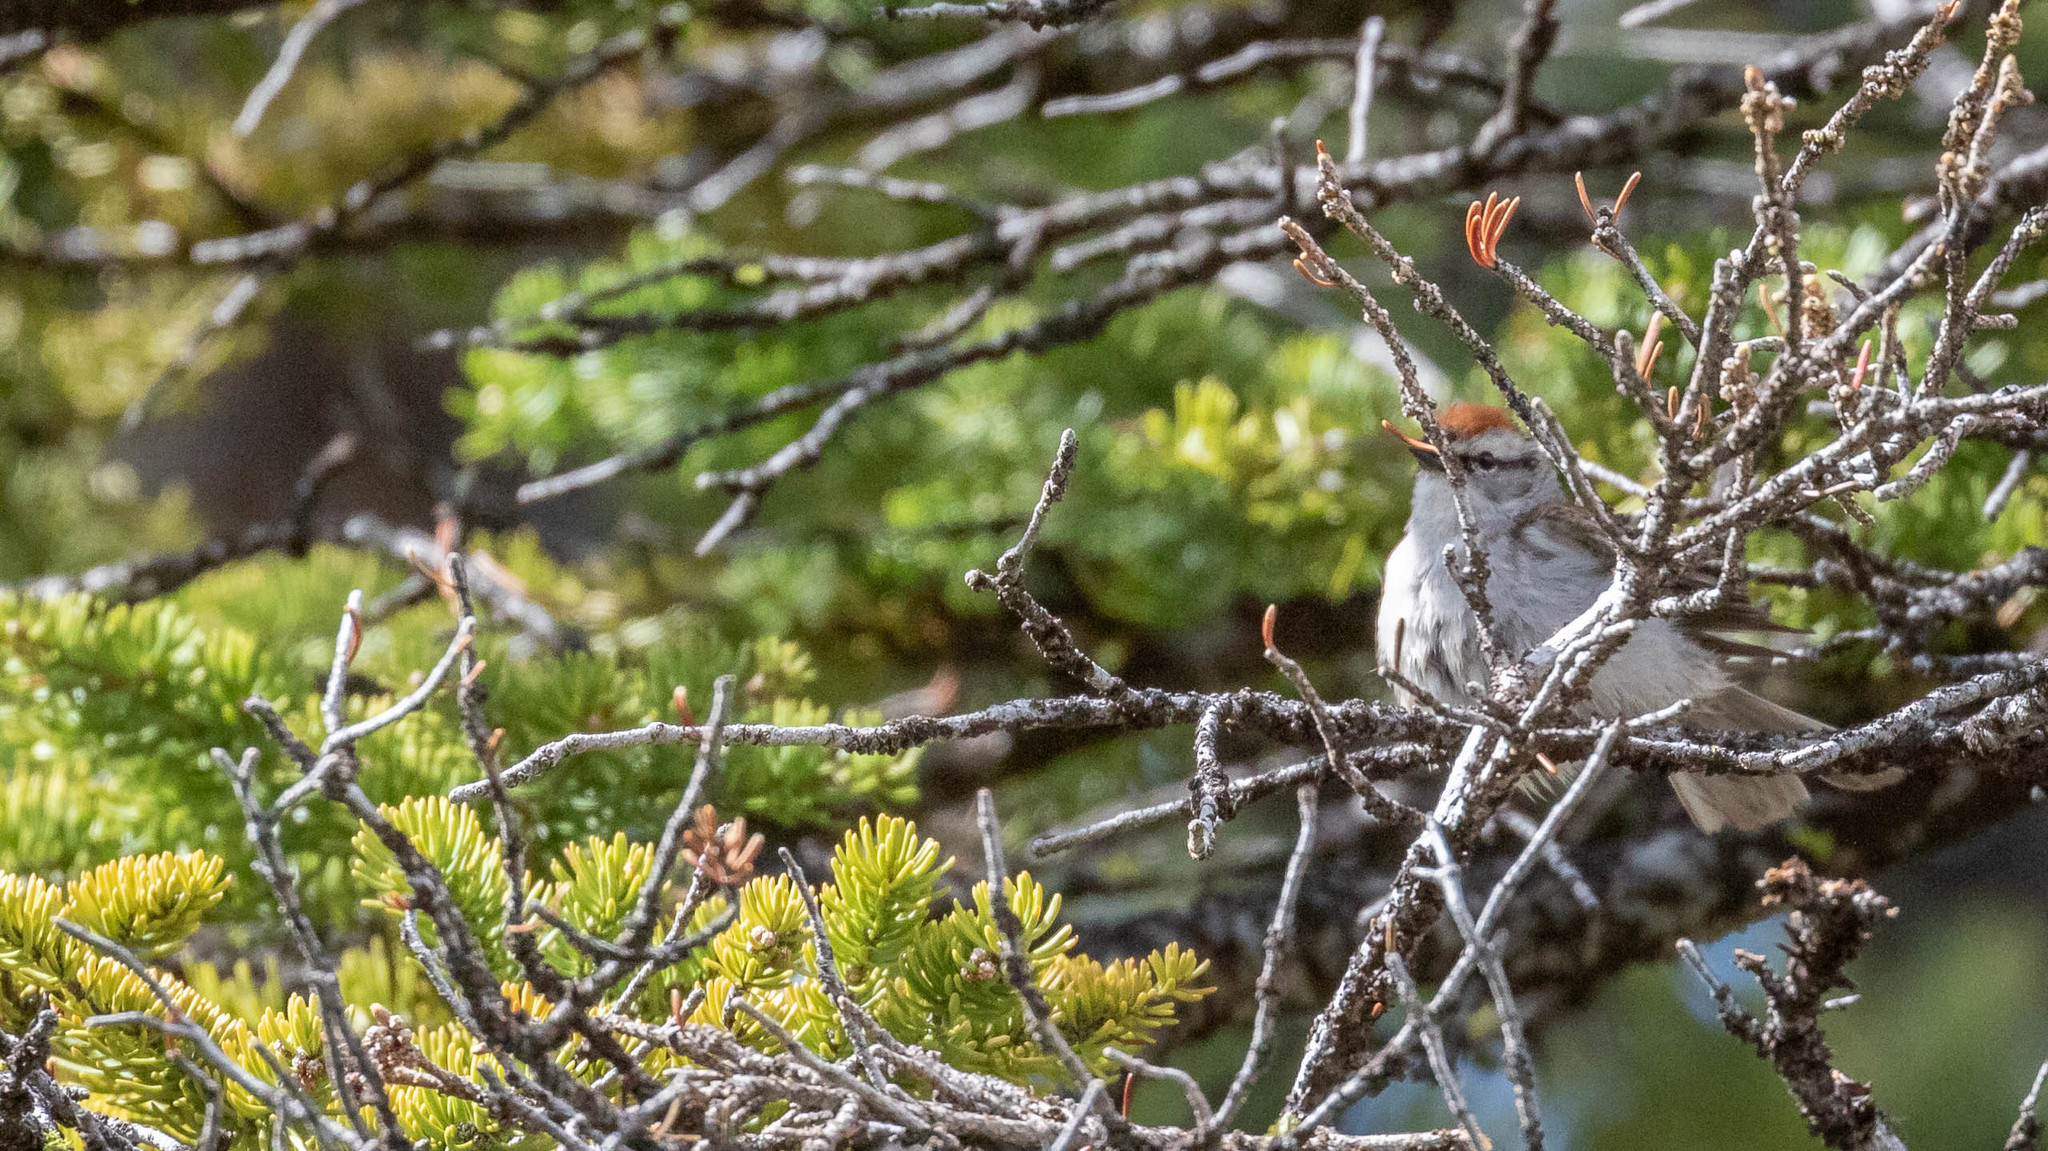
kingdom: Animalia
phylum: Chordata
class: Aves
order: Passeriformes
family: Passerellidae
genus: Spizella
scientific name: Spizella passerina
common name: Chipping sparrow
